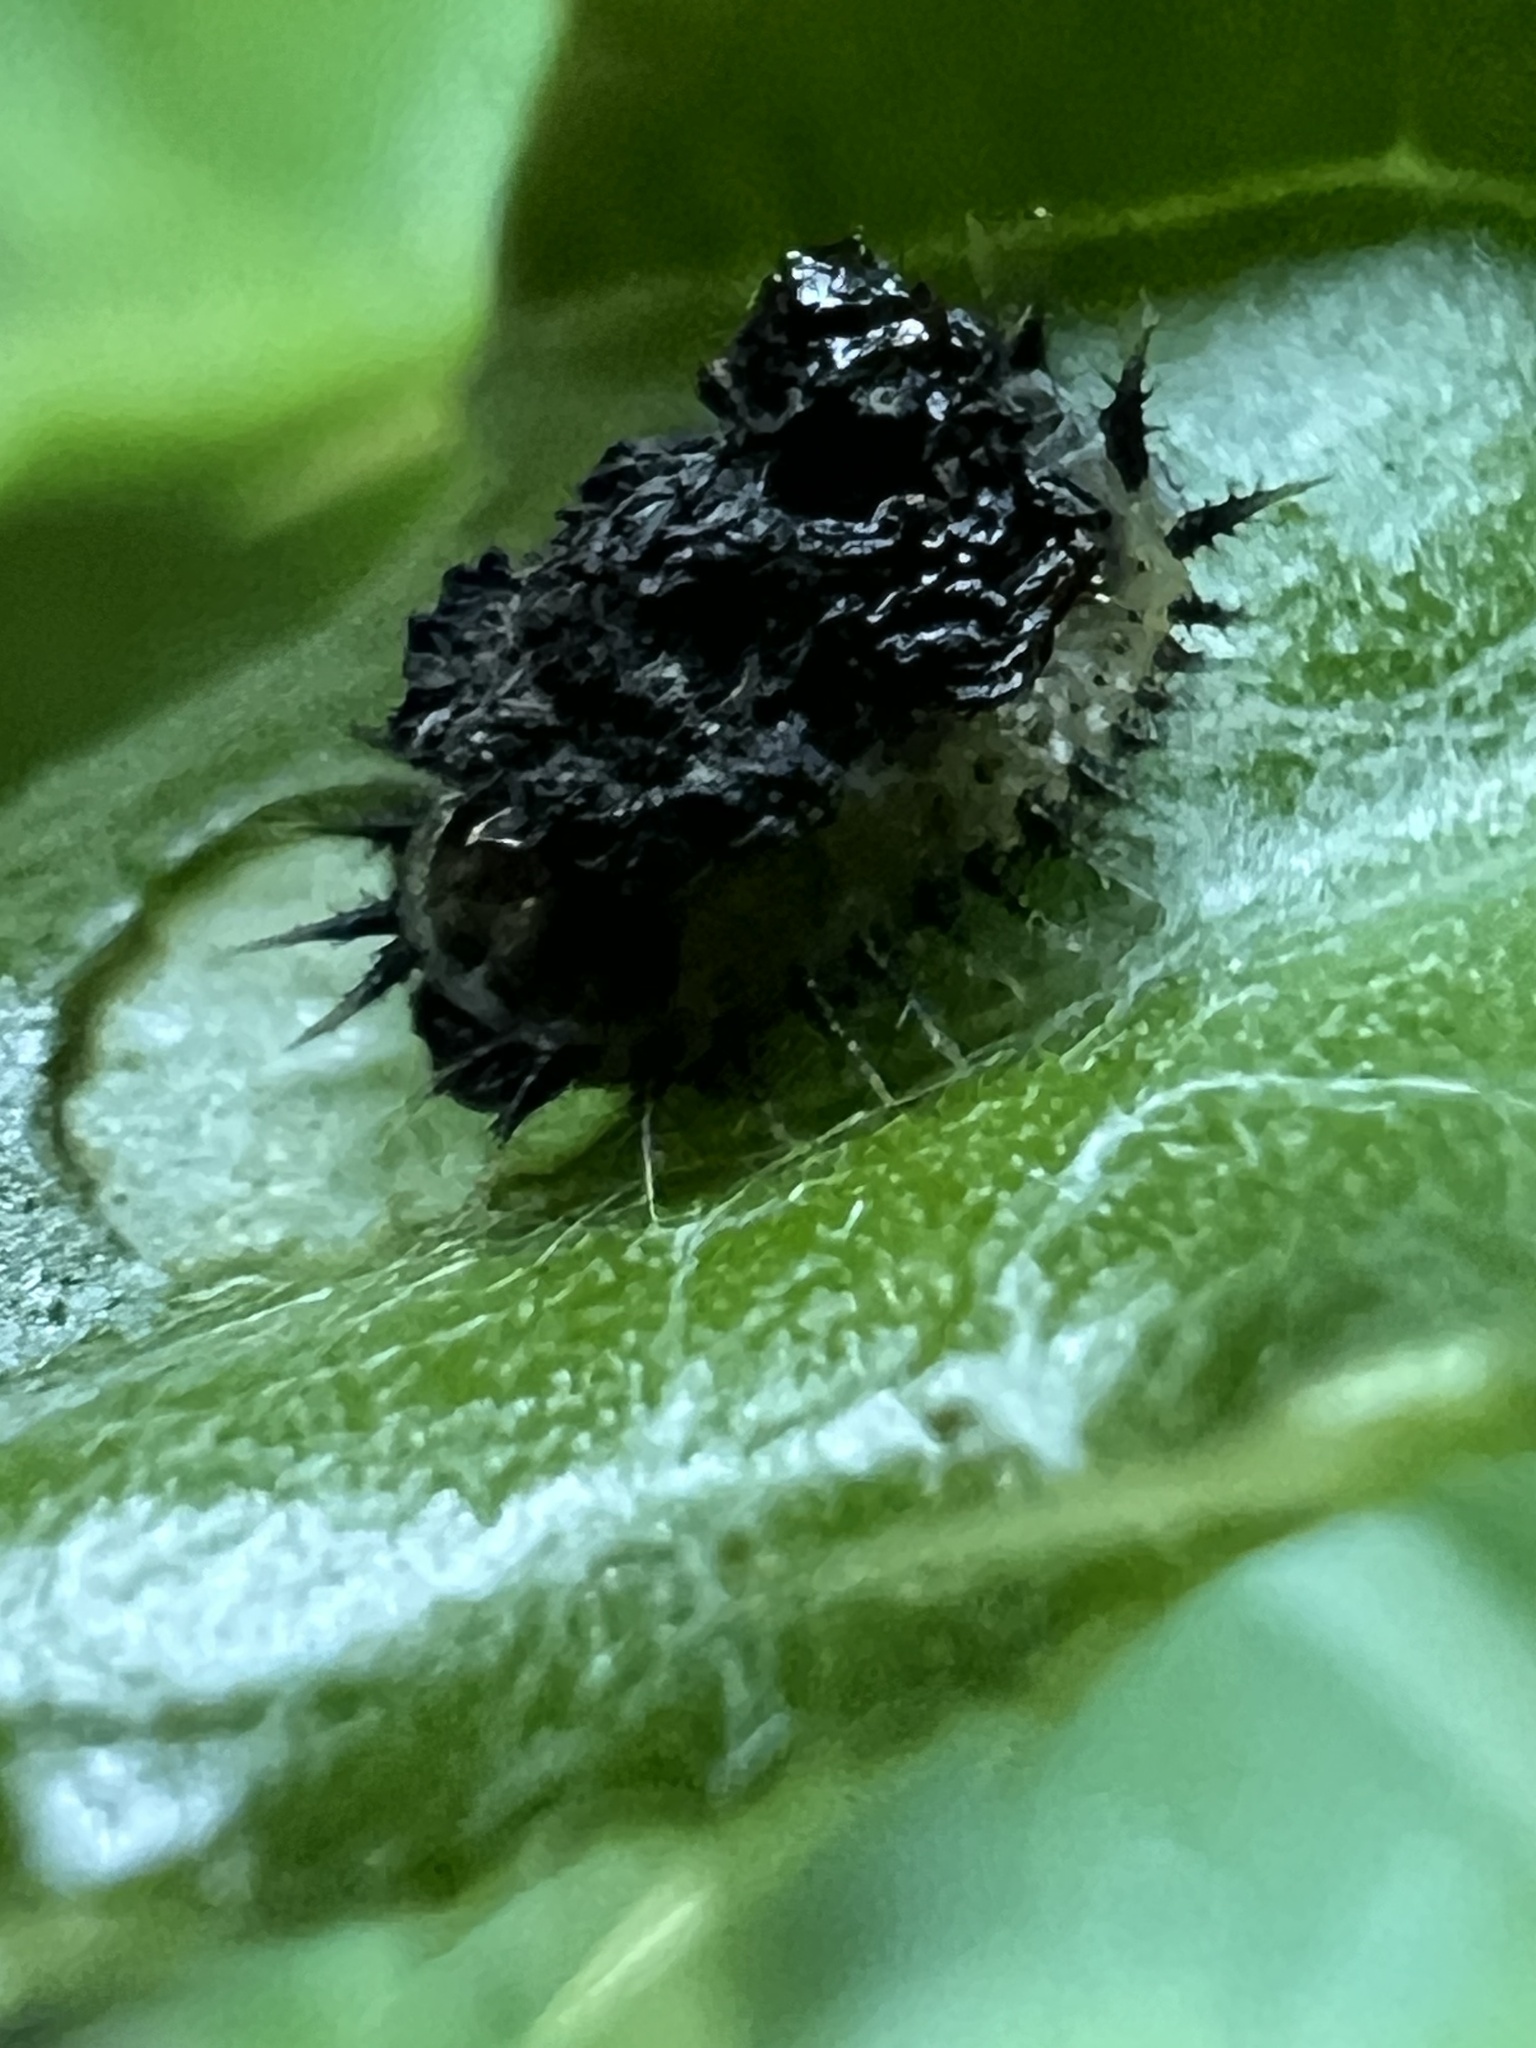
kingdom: Animalia
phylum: Arthropoda
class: Insecta
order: Coleoptera
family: Chrysomelidae
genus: Cassida
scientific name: Cassida rubiginosa
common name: Thistle tortoise beetle
